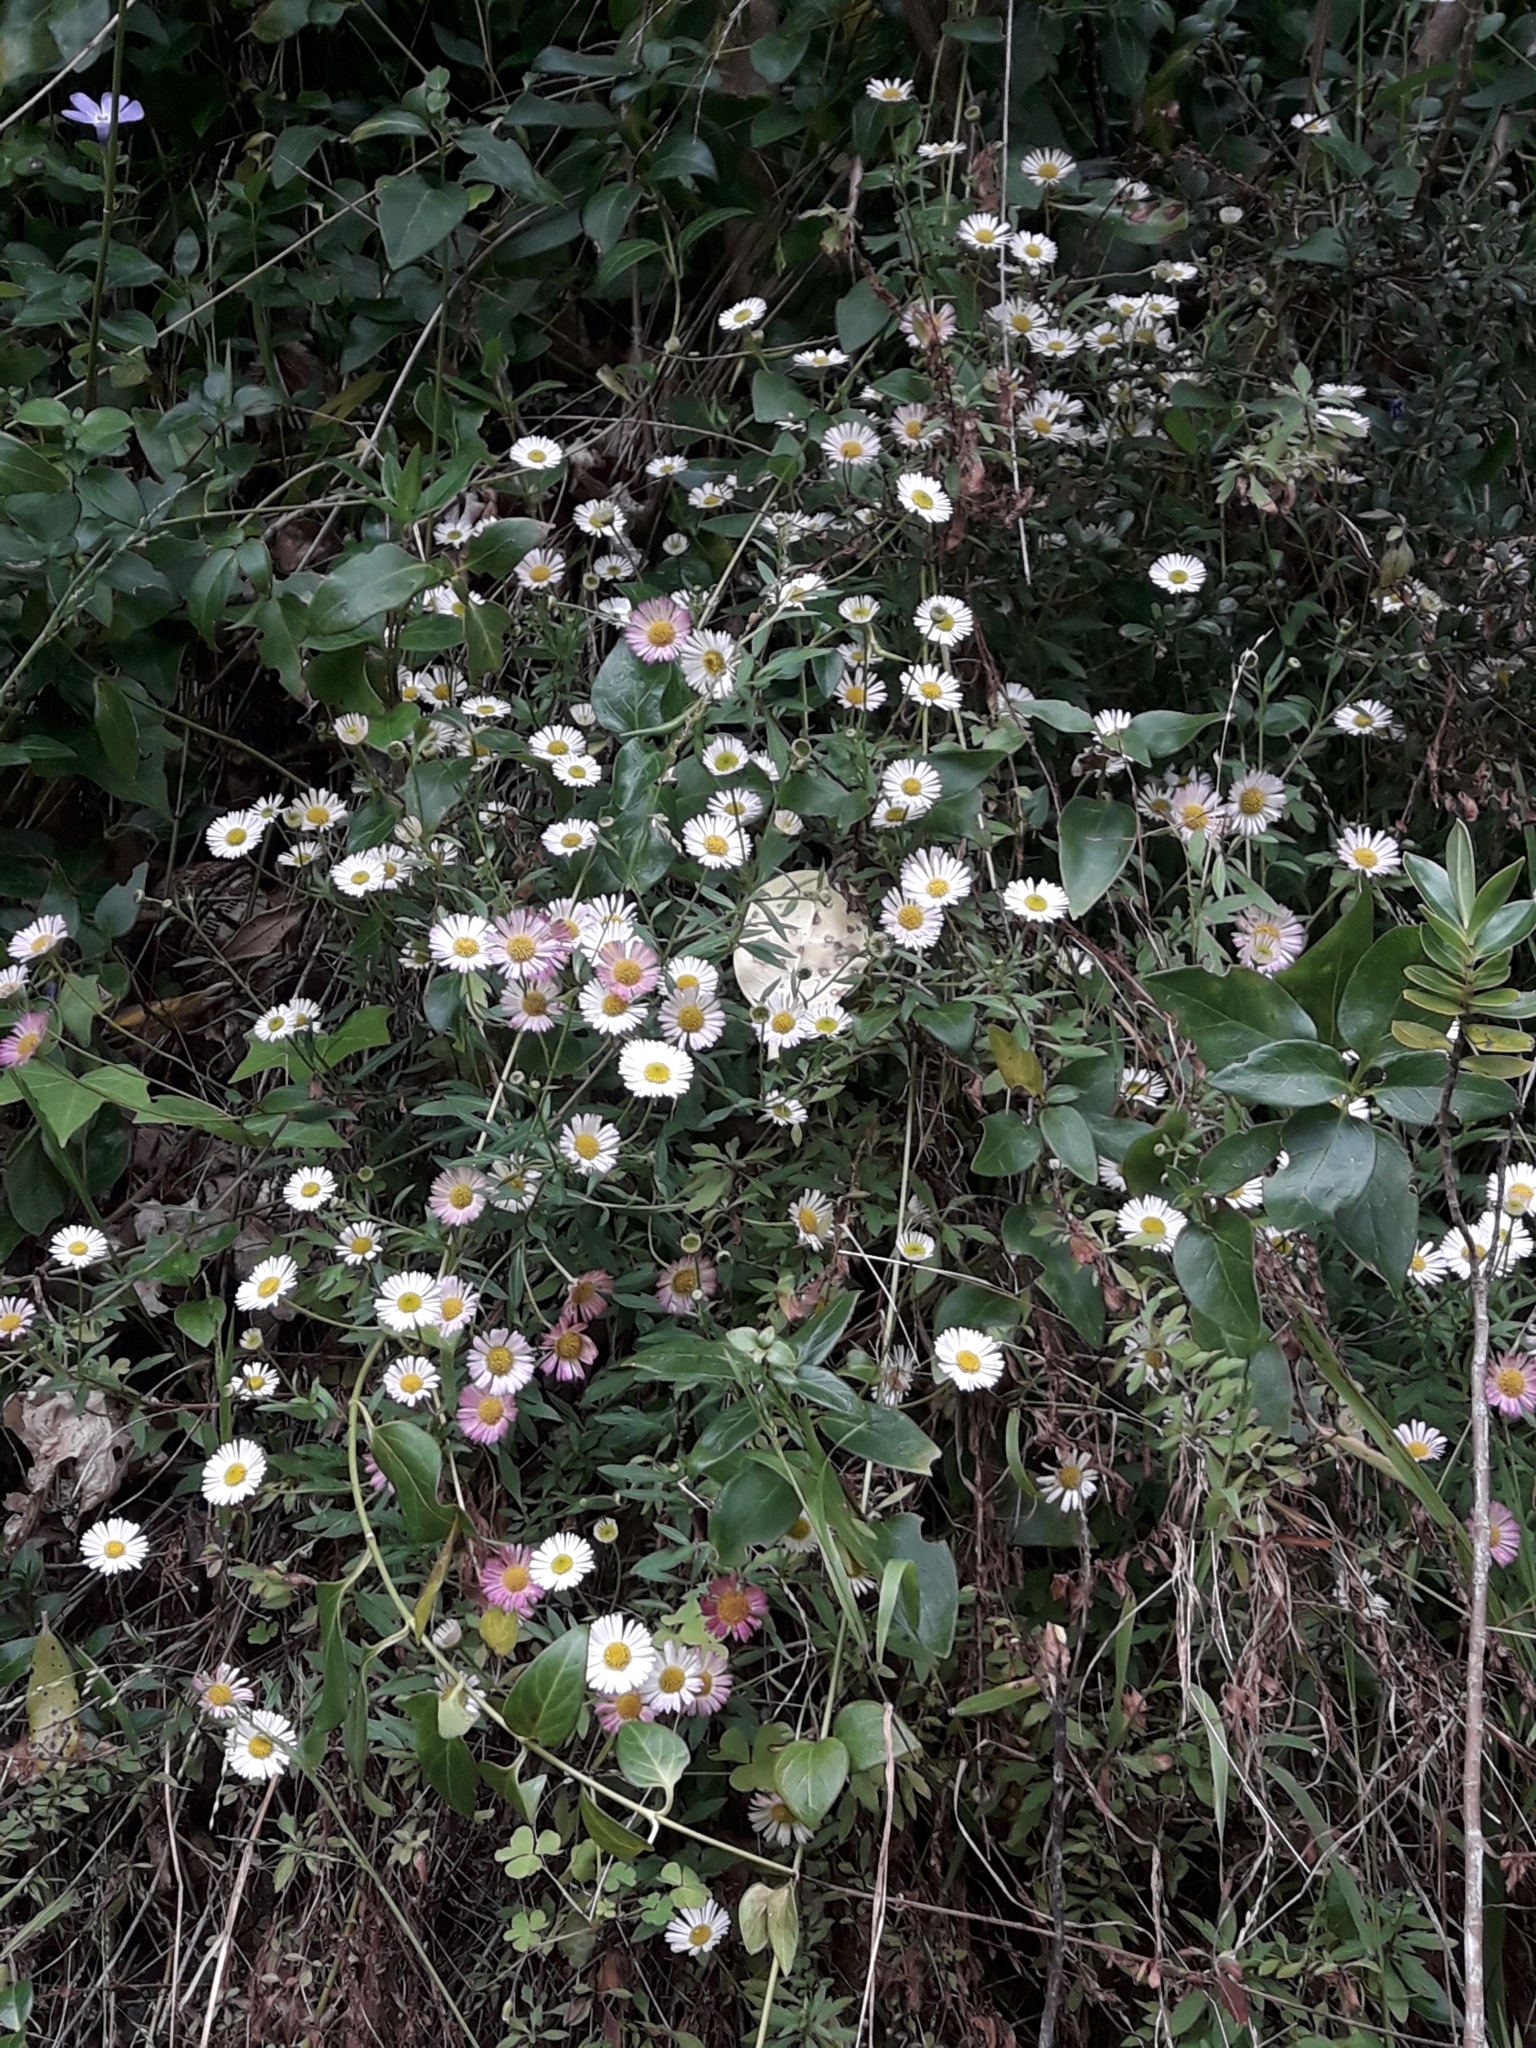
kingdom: Plantae
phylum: Tracheophyta
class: Magnoliopsida
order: Asterales
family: Asteraceae
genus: Erigeron
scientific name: Erigeron karvinskianus
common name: Mexican fleabane
